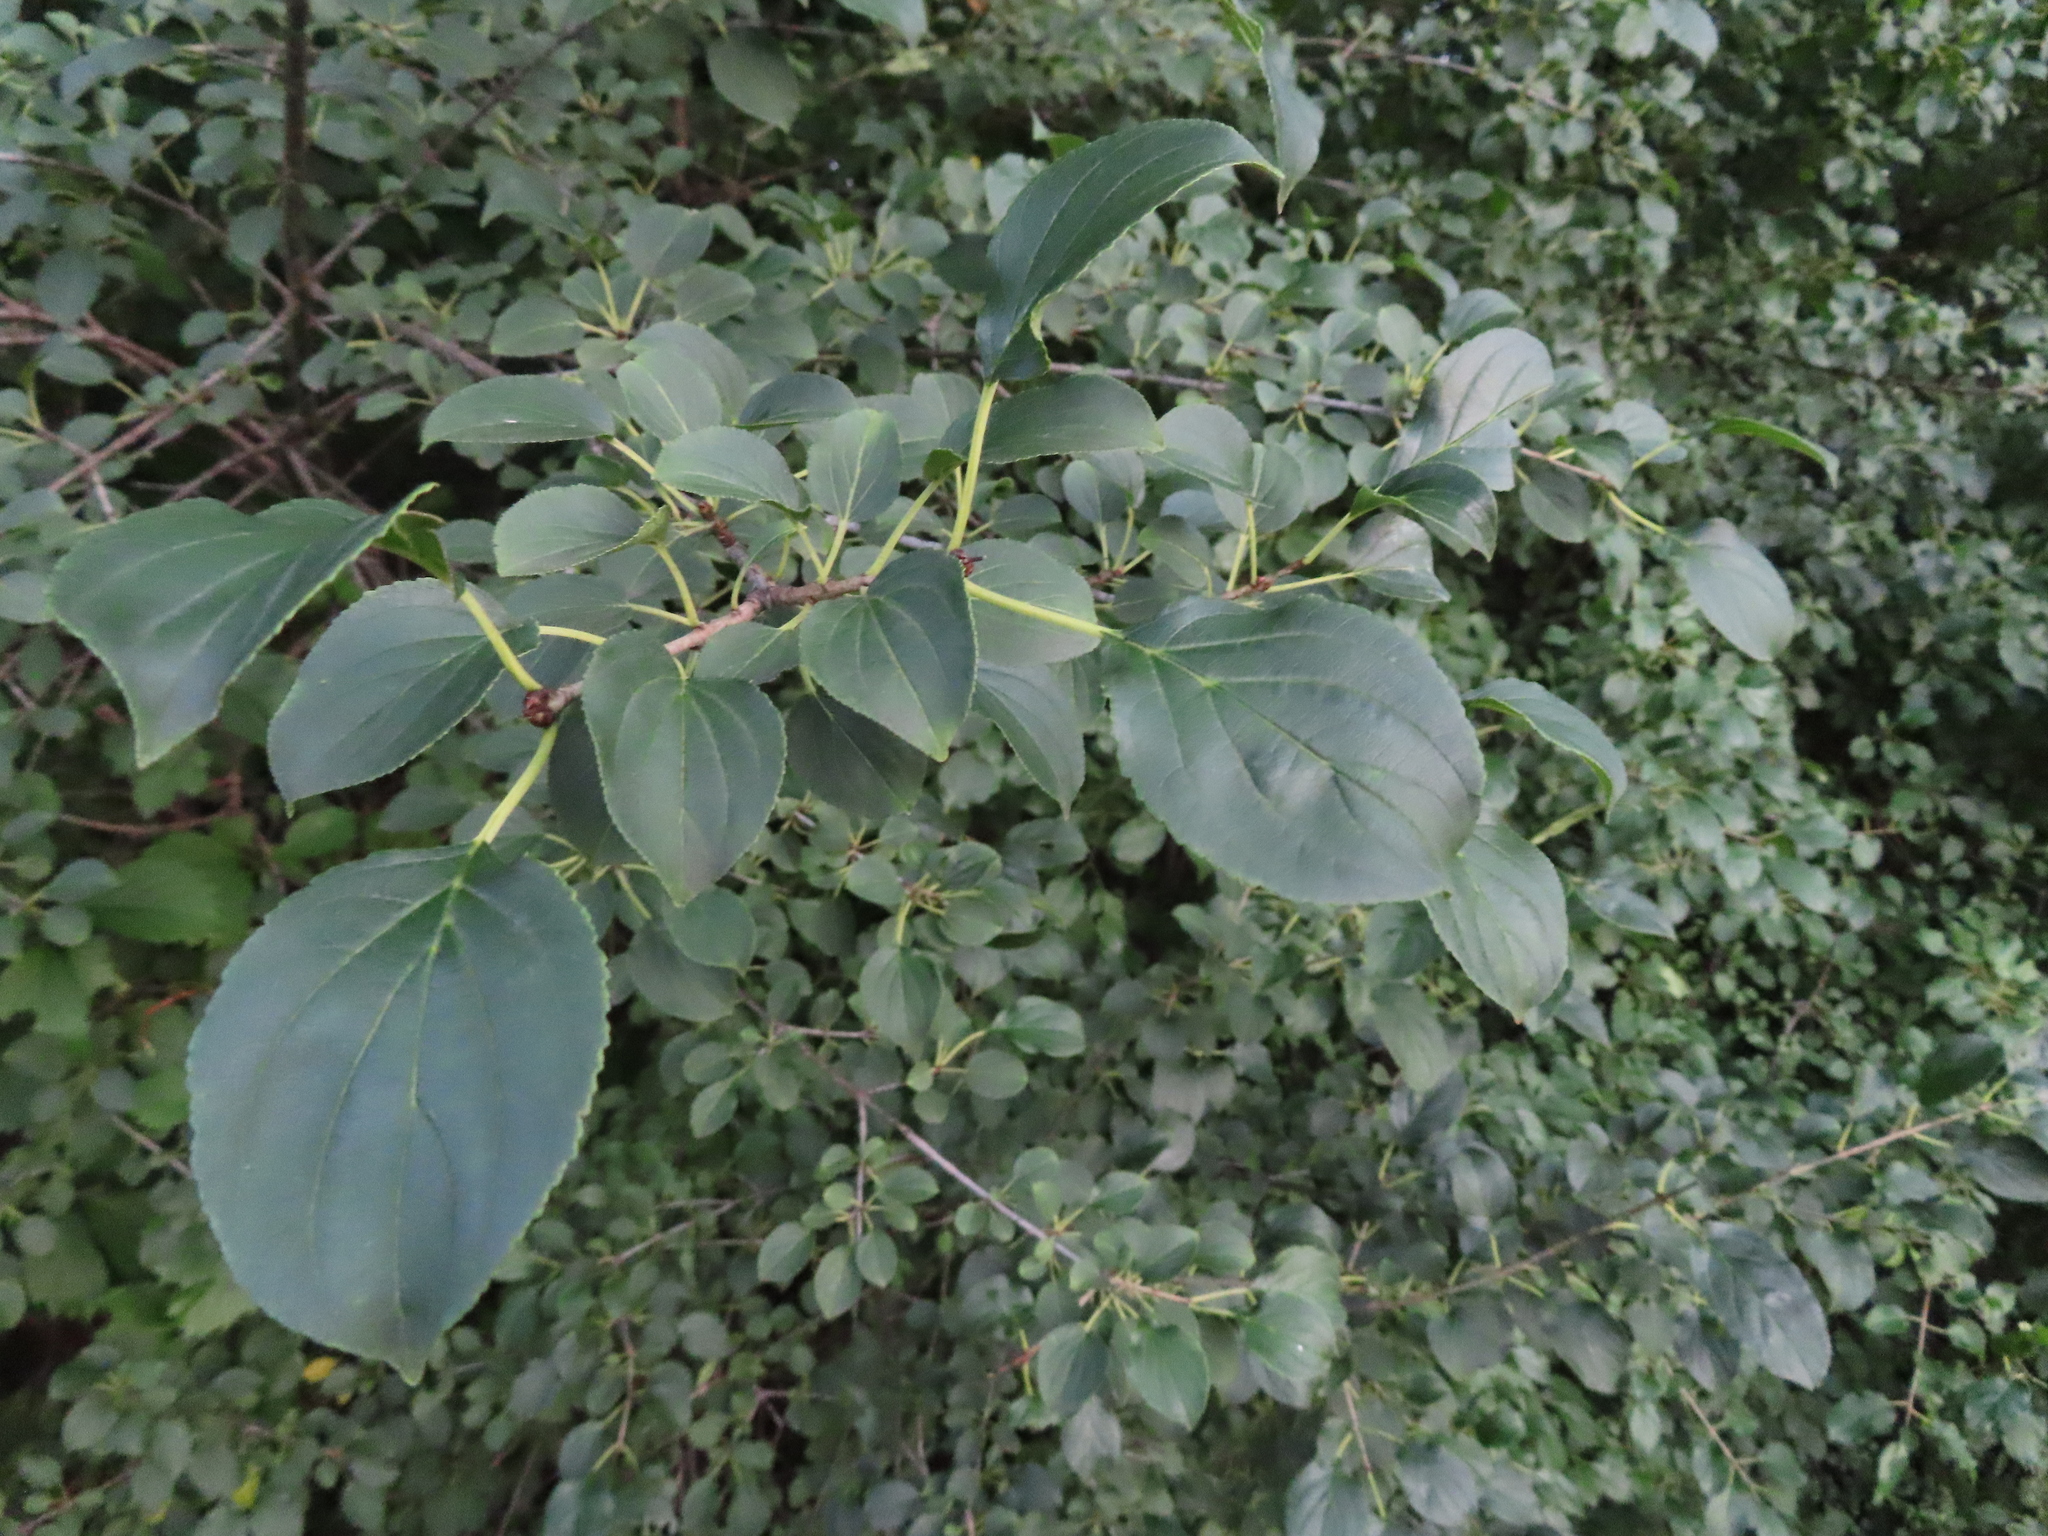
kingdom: Plantae
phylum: Tracheophyta
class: Magnoliopsida
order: Rosales
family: Rhamnaceae
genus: Rhamnus
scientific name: Rhamnus cathartica
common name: Common buckthorn
